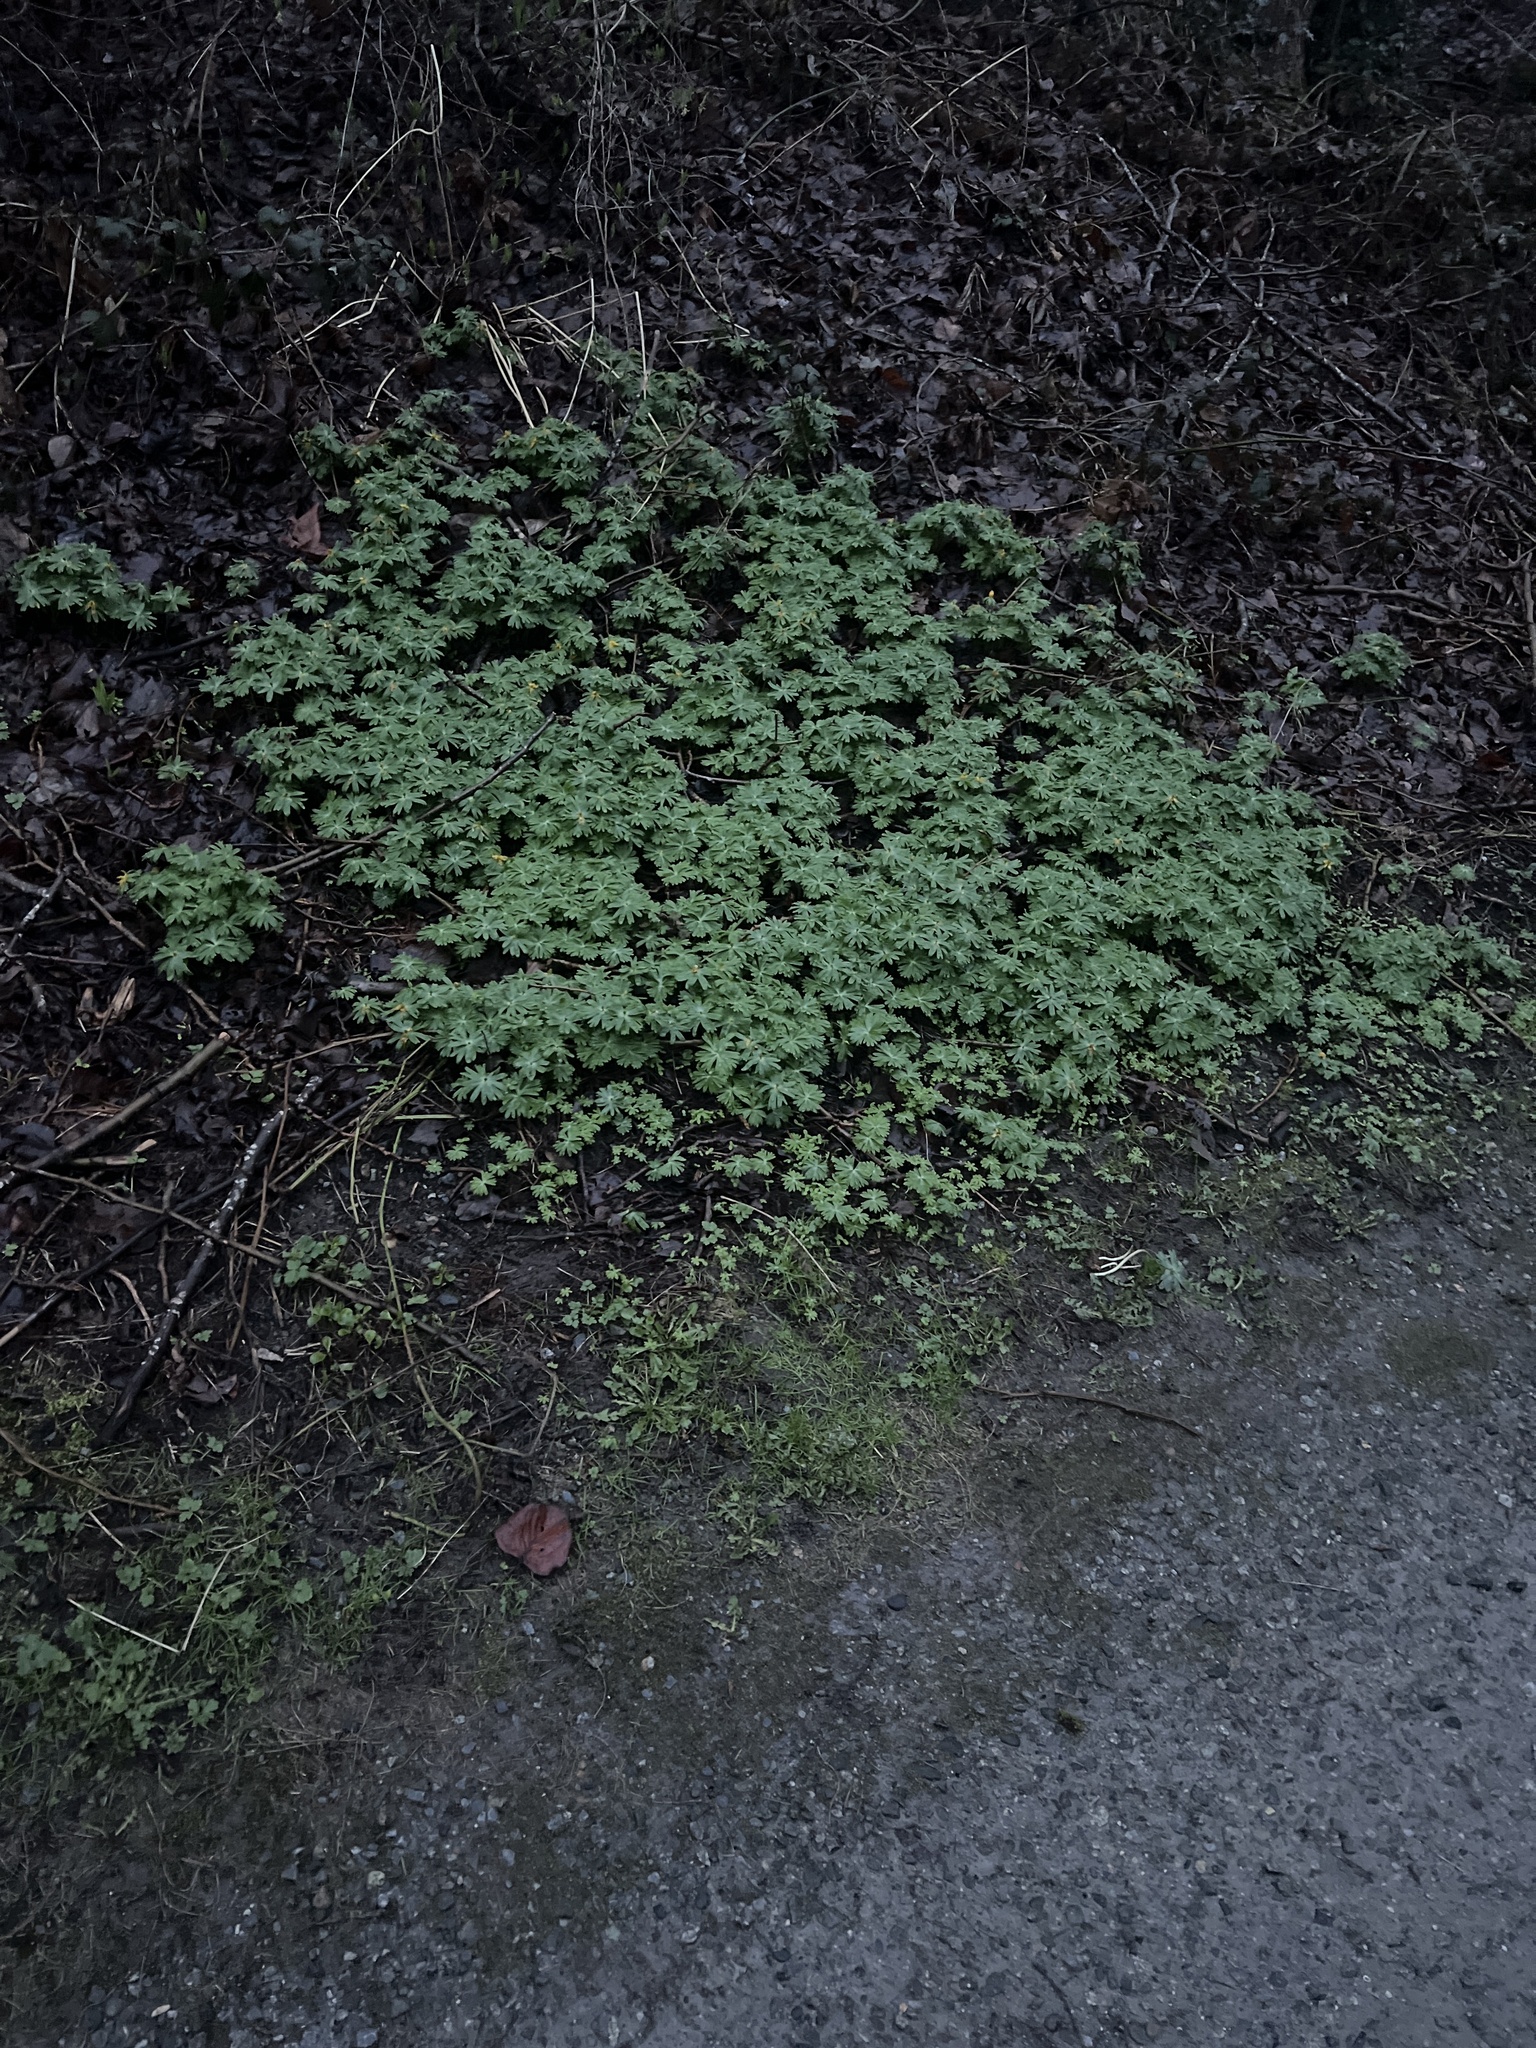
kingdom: Plantae
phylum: Tracheophyta
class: Magnoliopsida
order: Ranunculales
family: Ranunculaceae
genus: Eranthis
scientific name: Eranthis hyemalis
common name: Winter aconite
